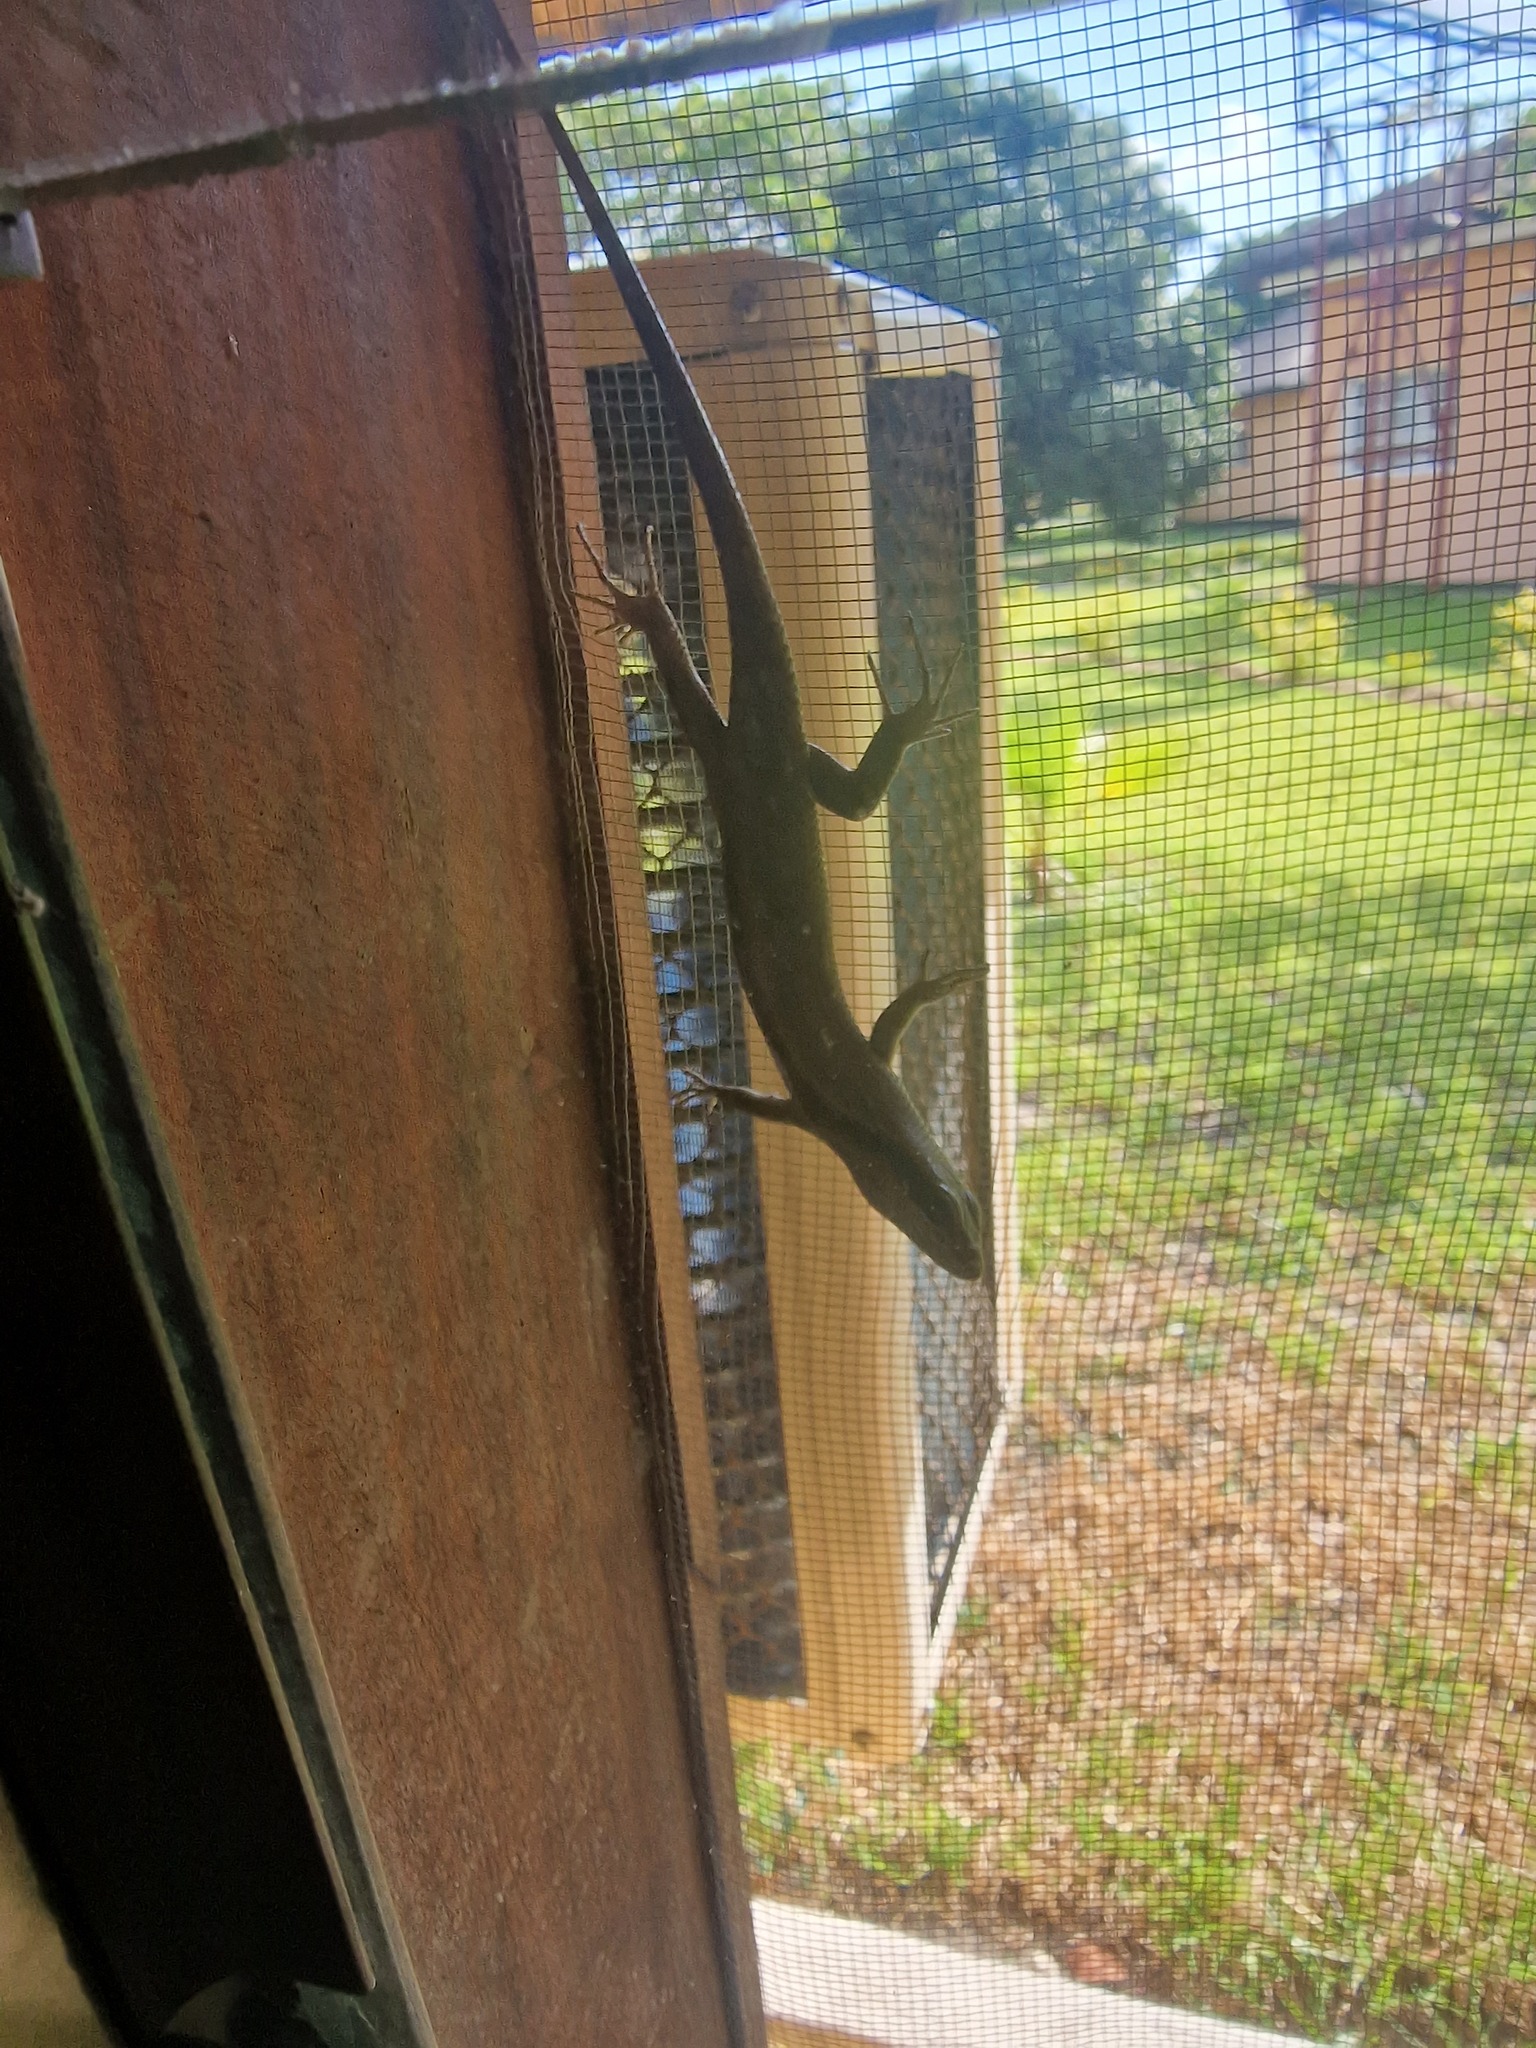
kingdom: Animalia
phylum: Chordata
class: Squamata
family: Scincidae
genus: Trachylepis
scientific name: Trachylepis wahlbergii
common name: Wahlberg’s striped skink
